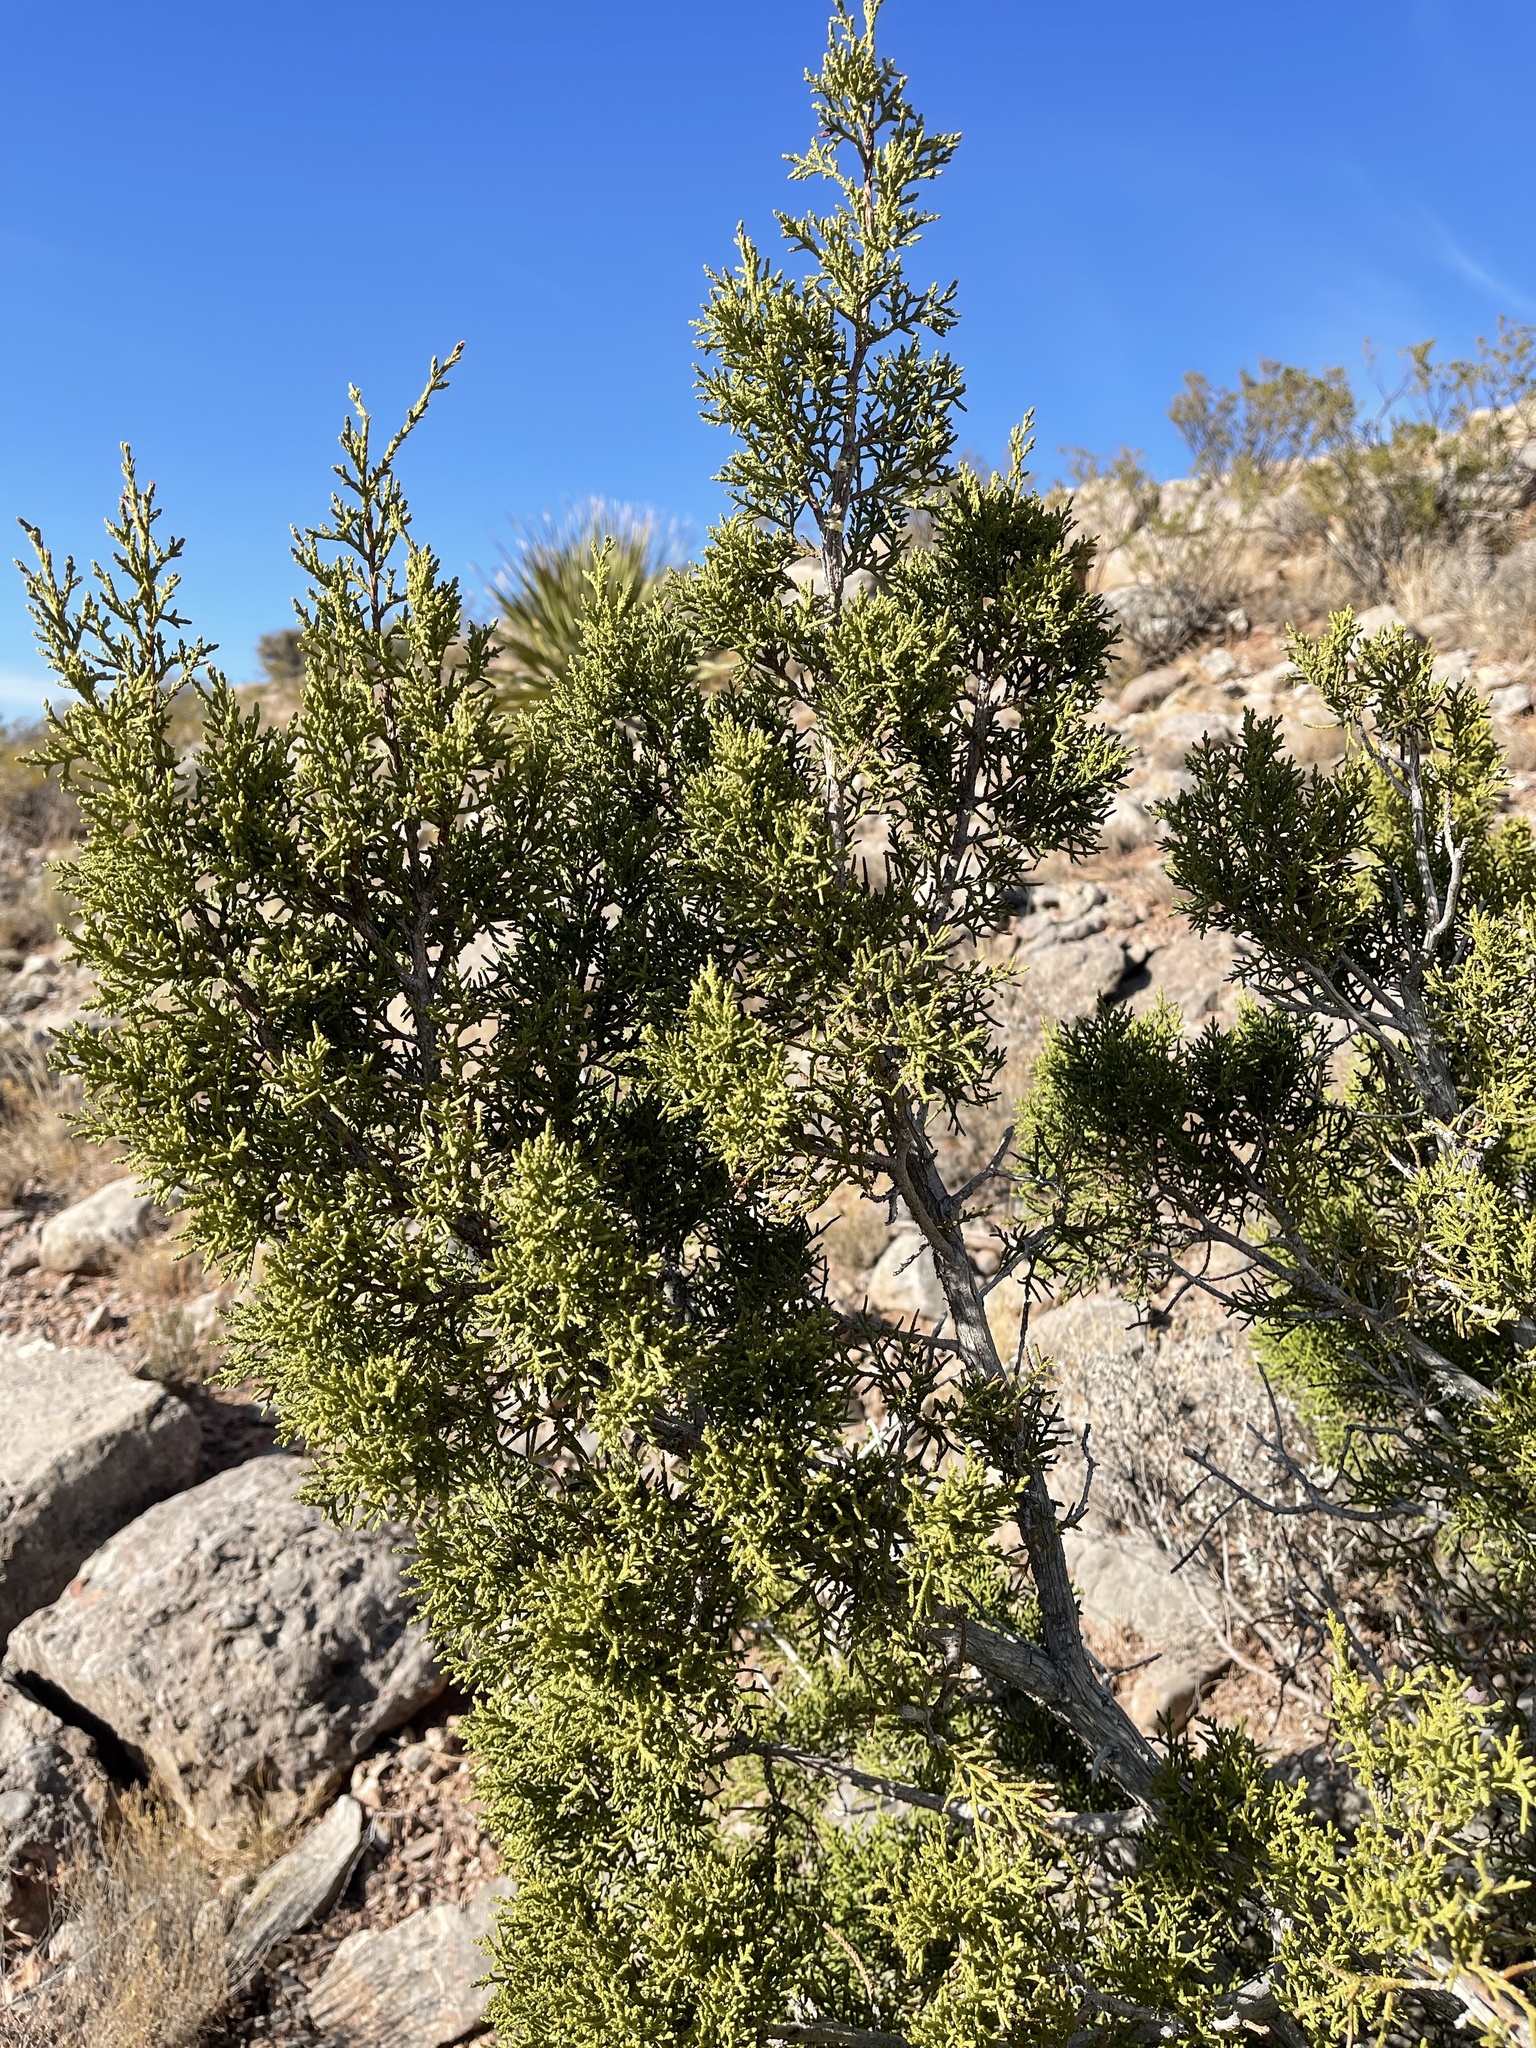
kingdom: Plantae
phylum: Tracheophyta
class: Pinopsida
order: Pinales
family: Cupressaceae
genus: Juniperus
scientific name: Juniperus monosperma
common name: One-seed juniper
